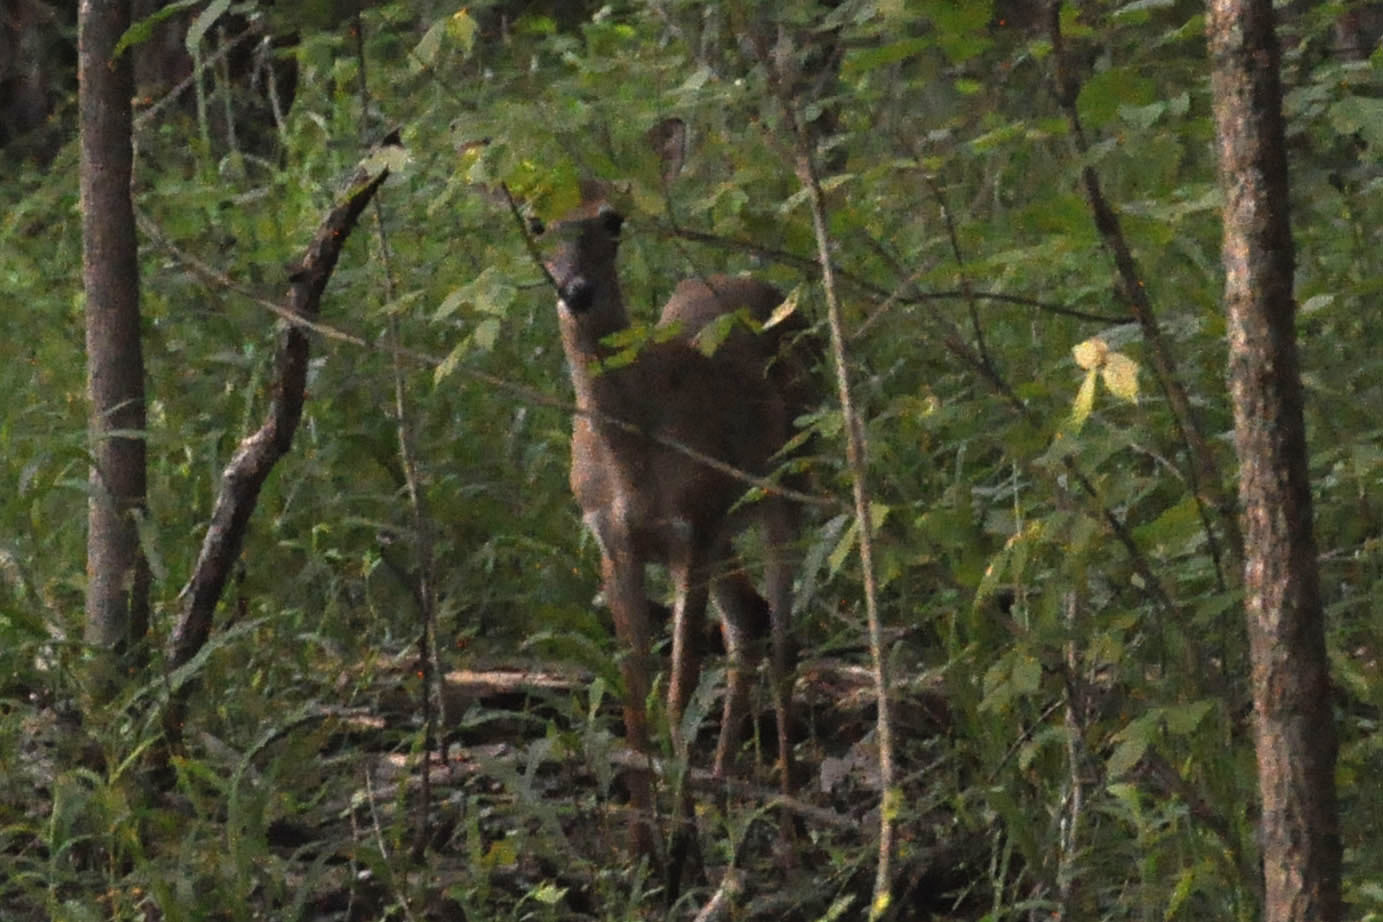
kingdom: Animalia
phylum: Chordata
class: Mammalia
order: Artiodactyla
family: Cervidae
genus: Odocoileus
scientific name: Odocoileus virginianus
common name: White-tailed deer
